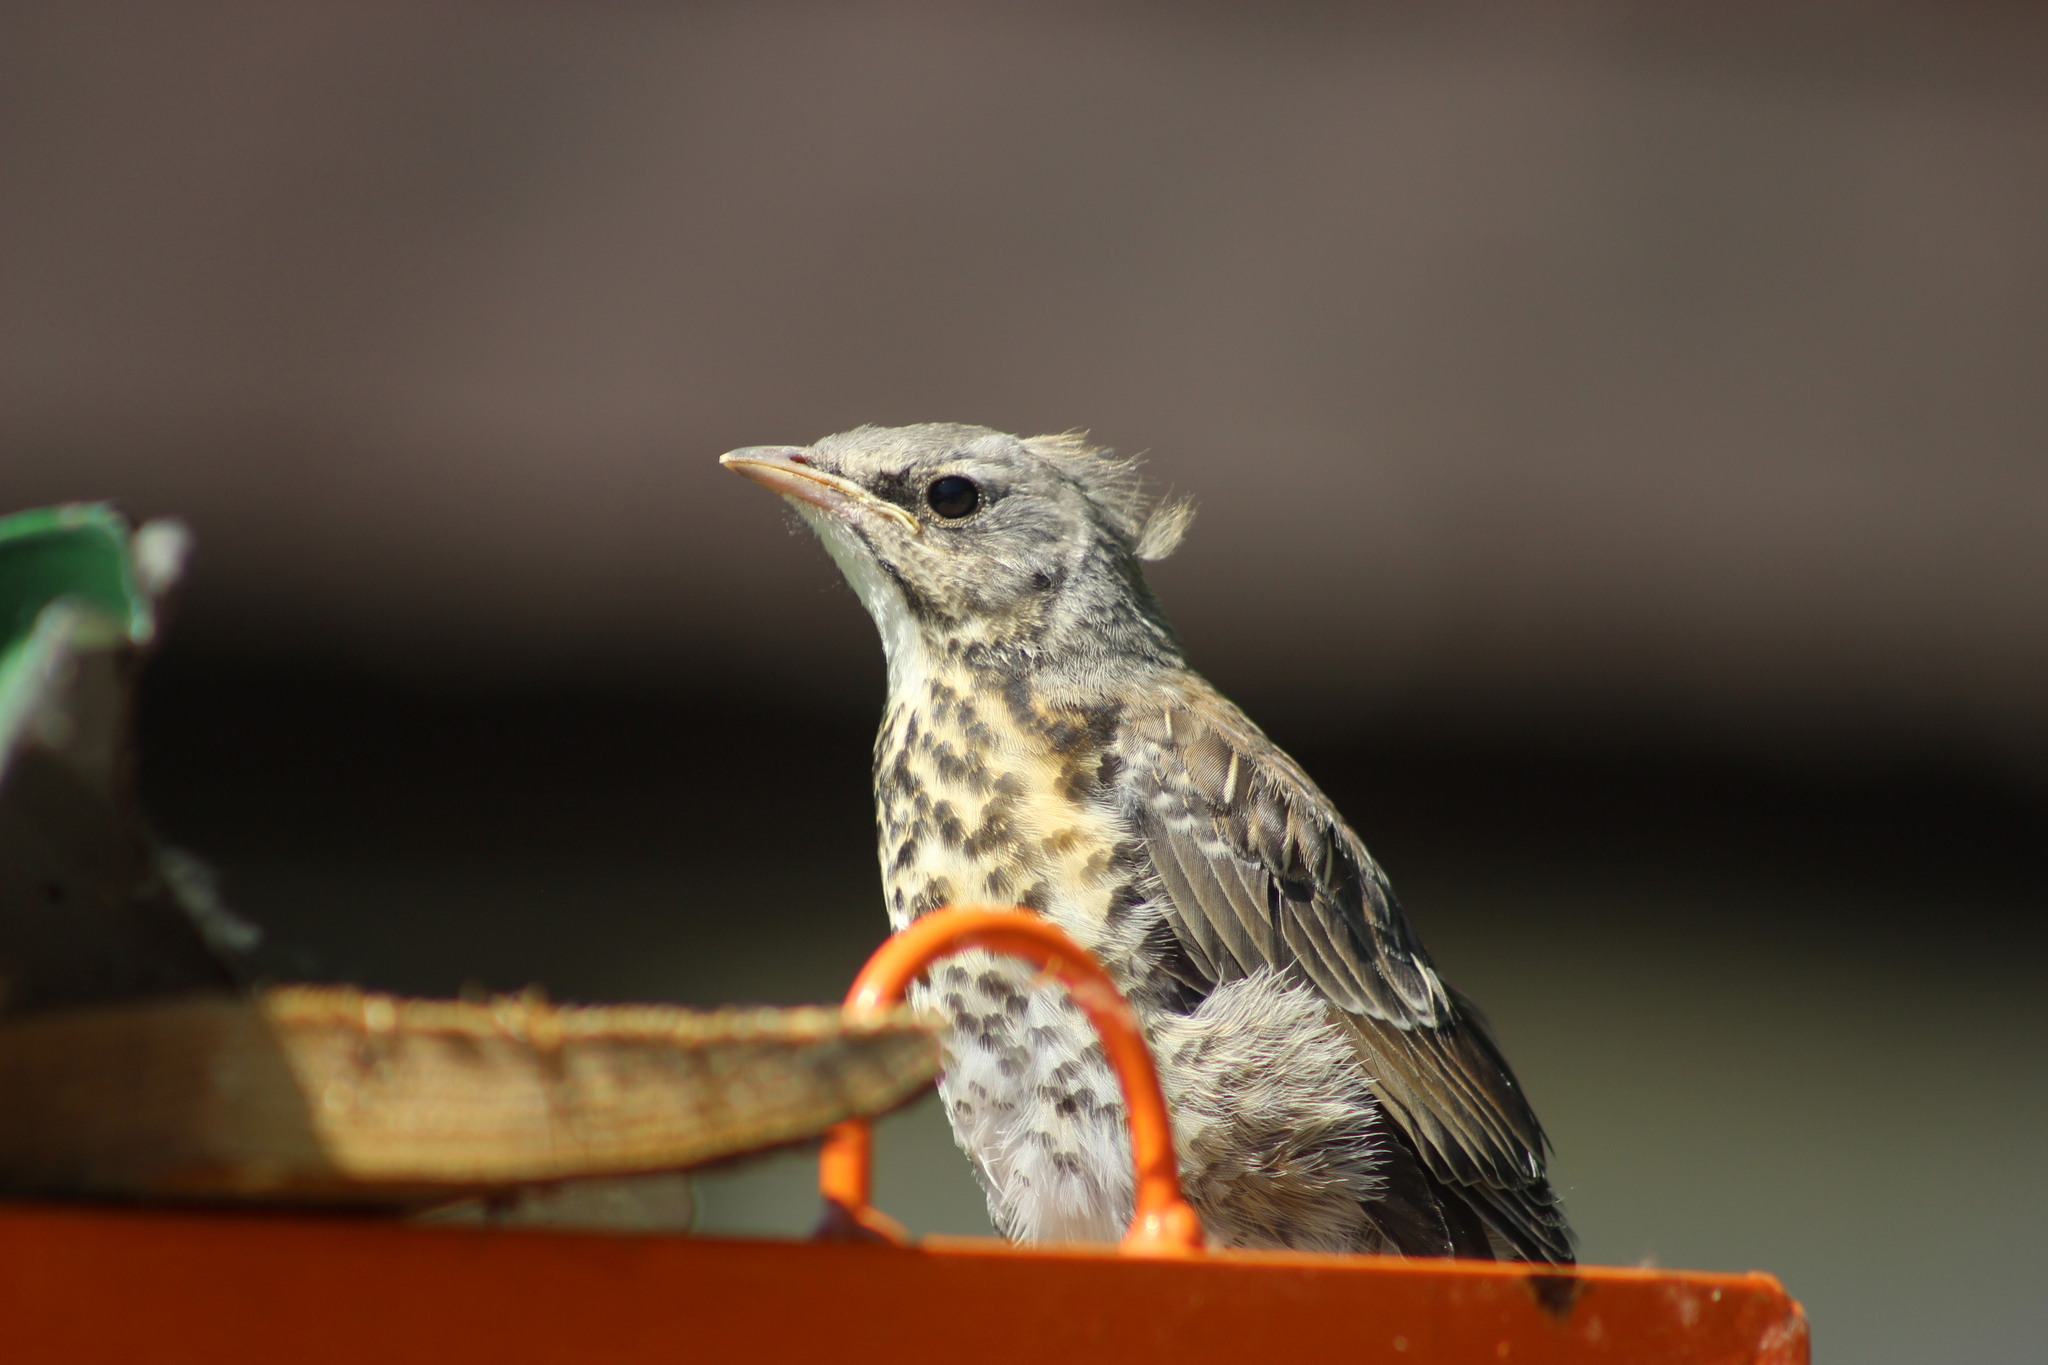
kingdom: Animalia
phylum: Chordata
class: Aves
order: Passeriformes
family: Turdidae
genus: Turdus
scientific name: Turdus pilaris
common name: Fieldfare
